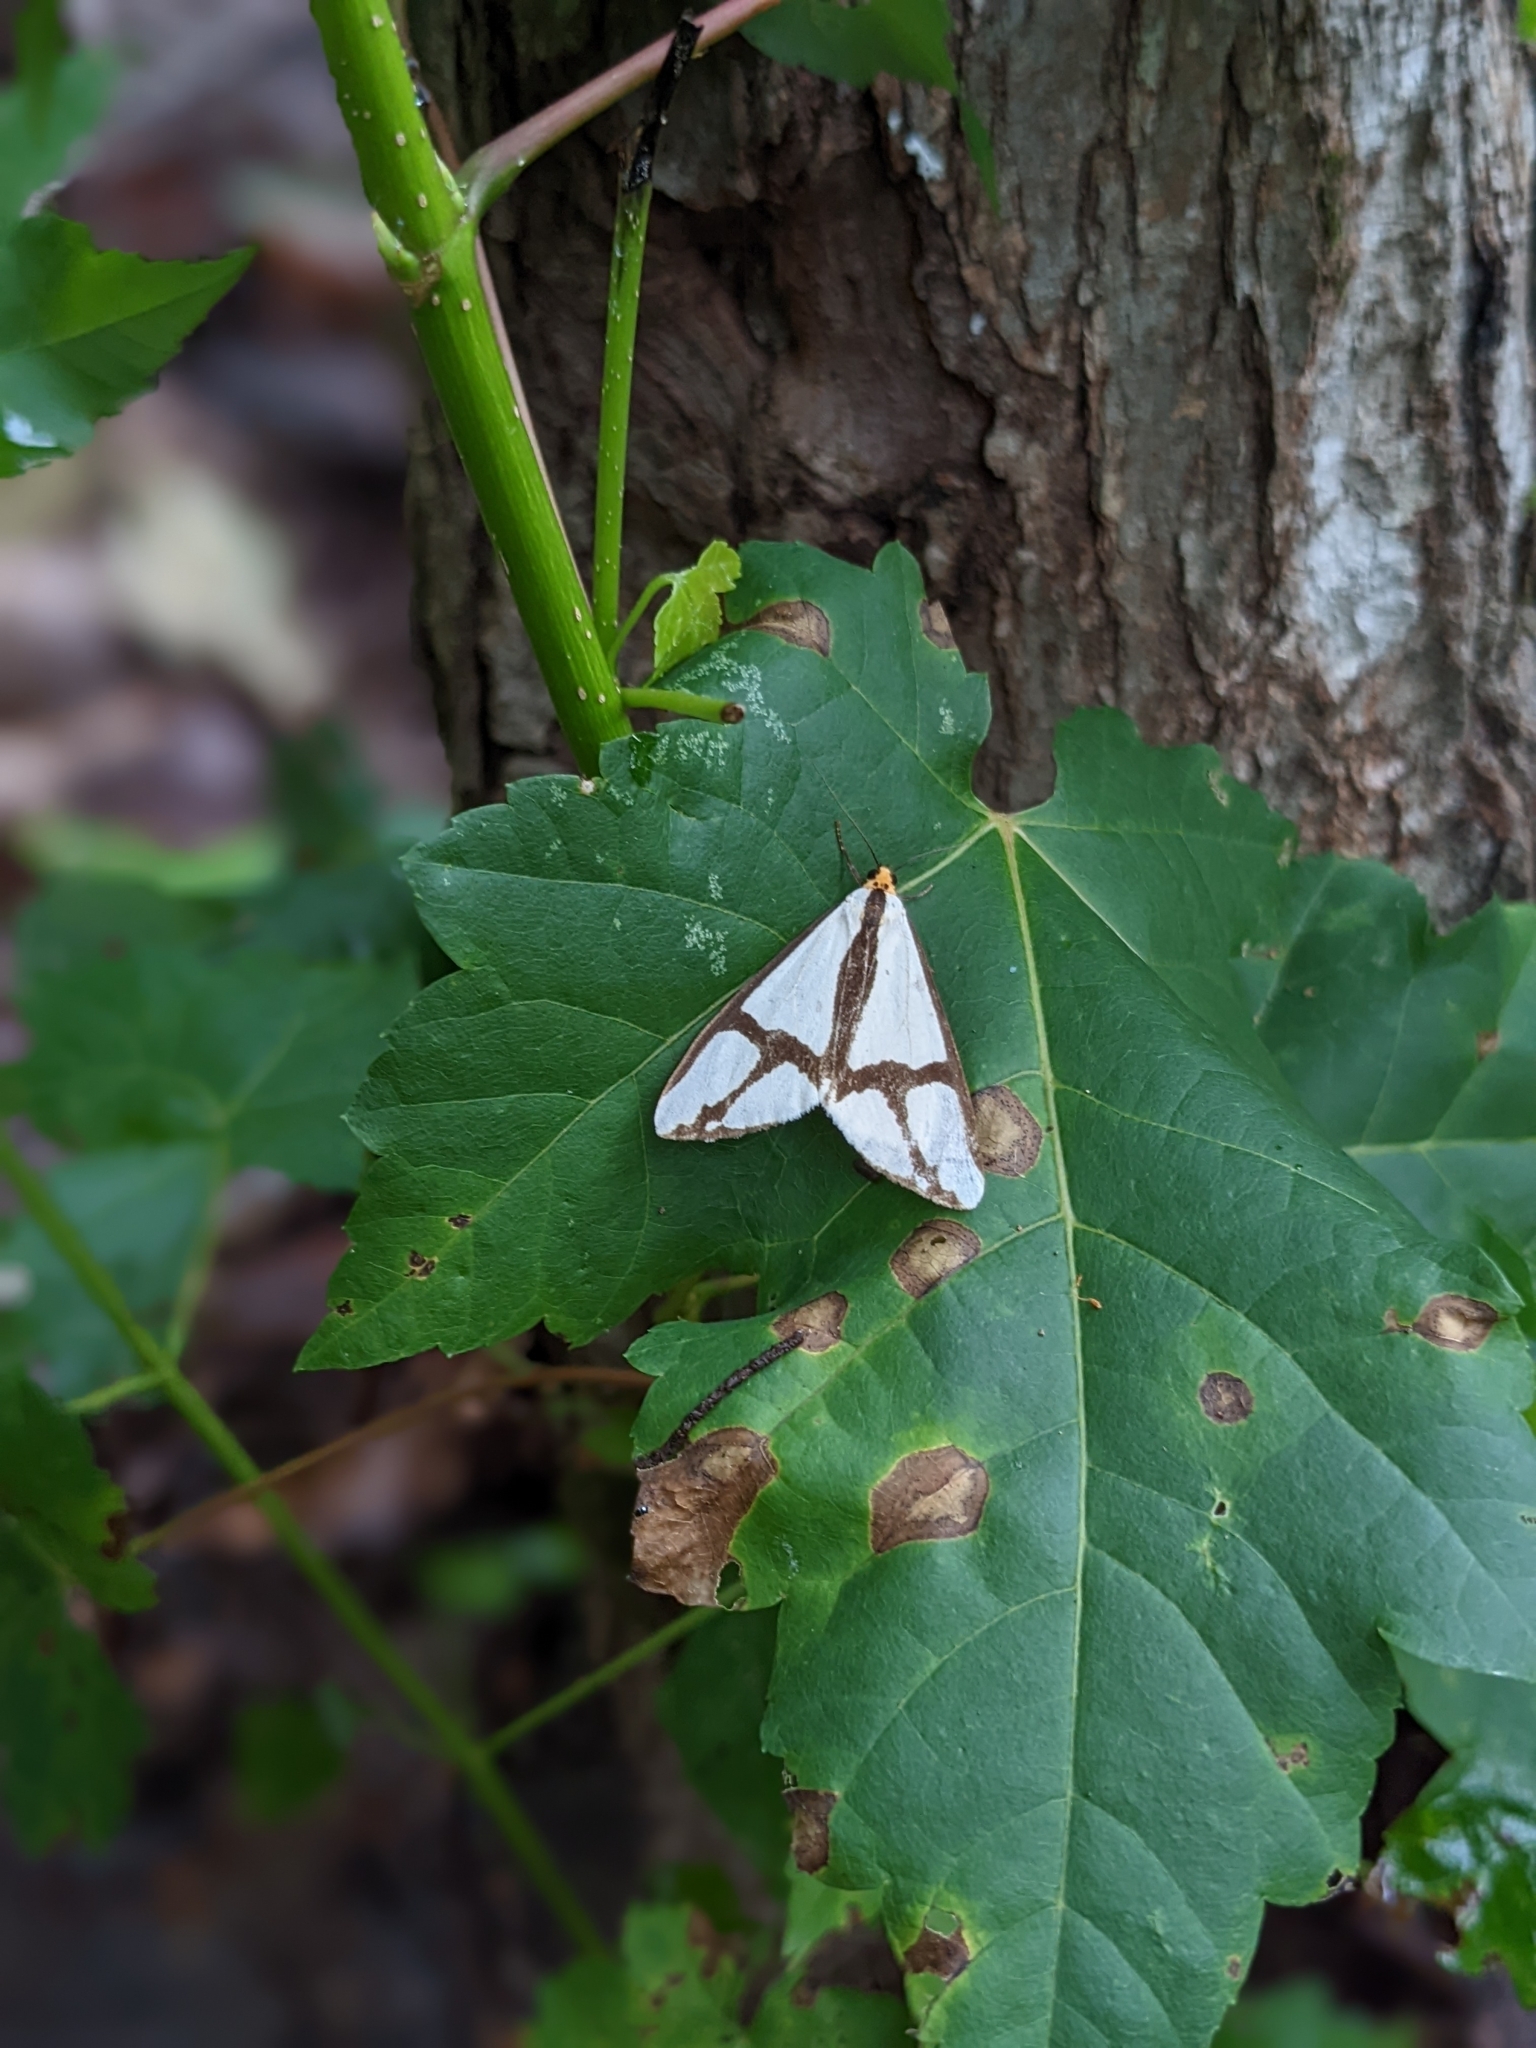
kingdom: Animalia
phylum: Arthropoda
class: Insecta
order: Lepidoptera
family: Erebidae
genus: Haploa
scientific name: Haploa contigua
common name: Neighbor moth
